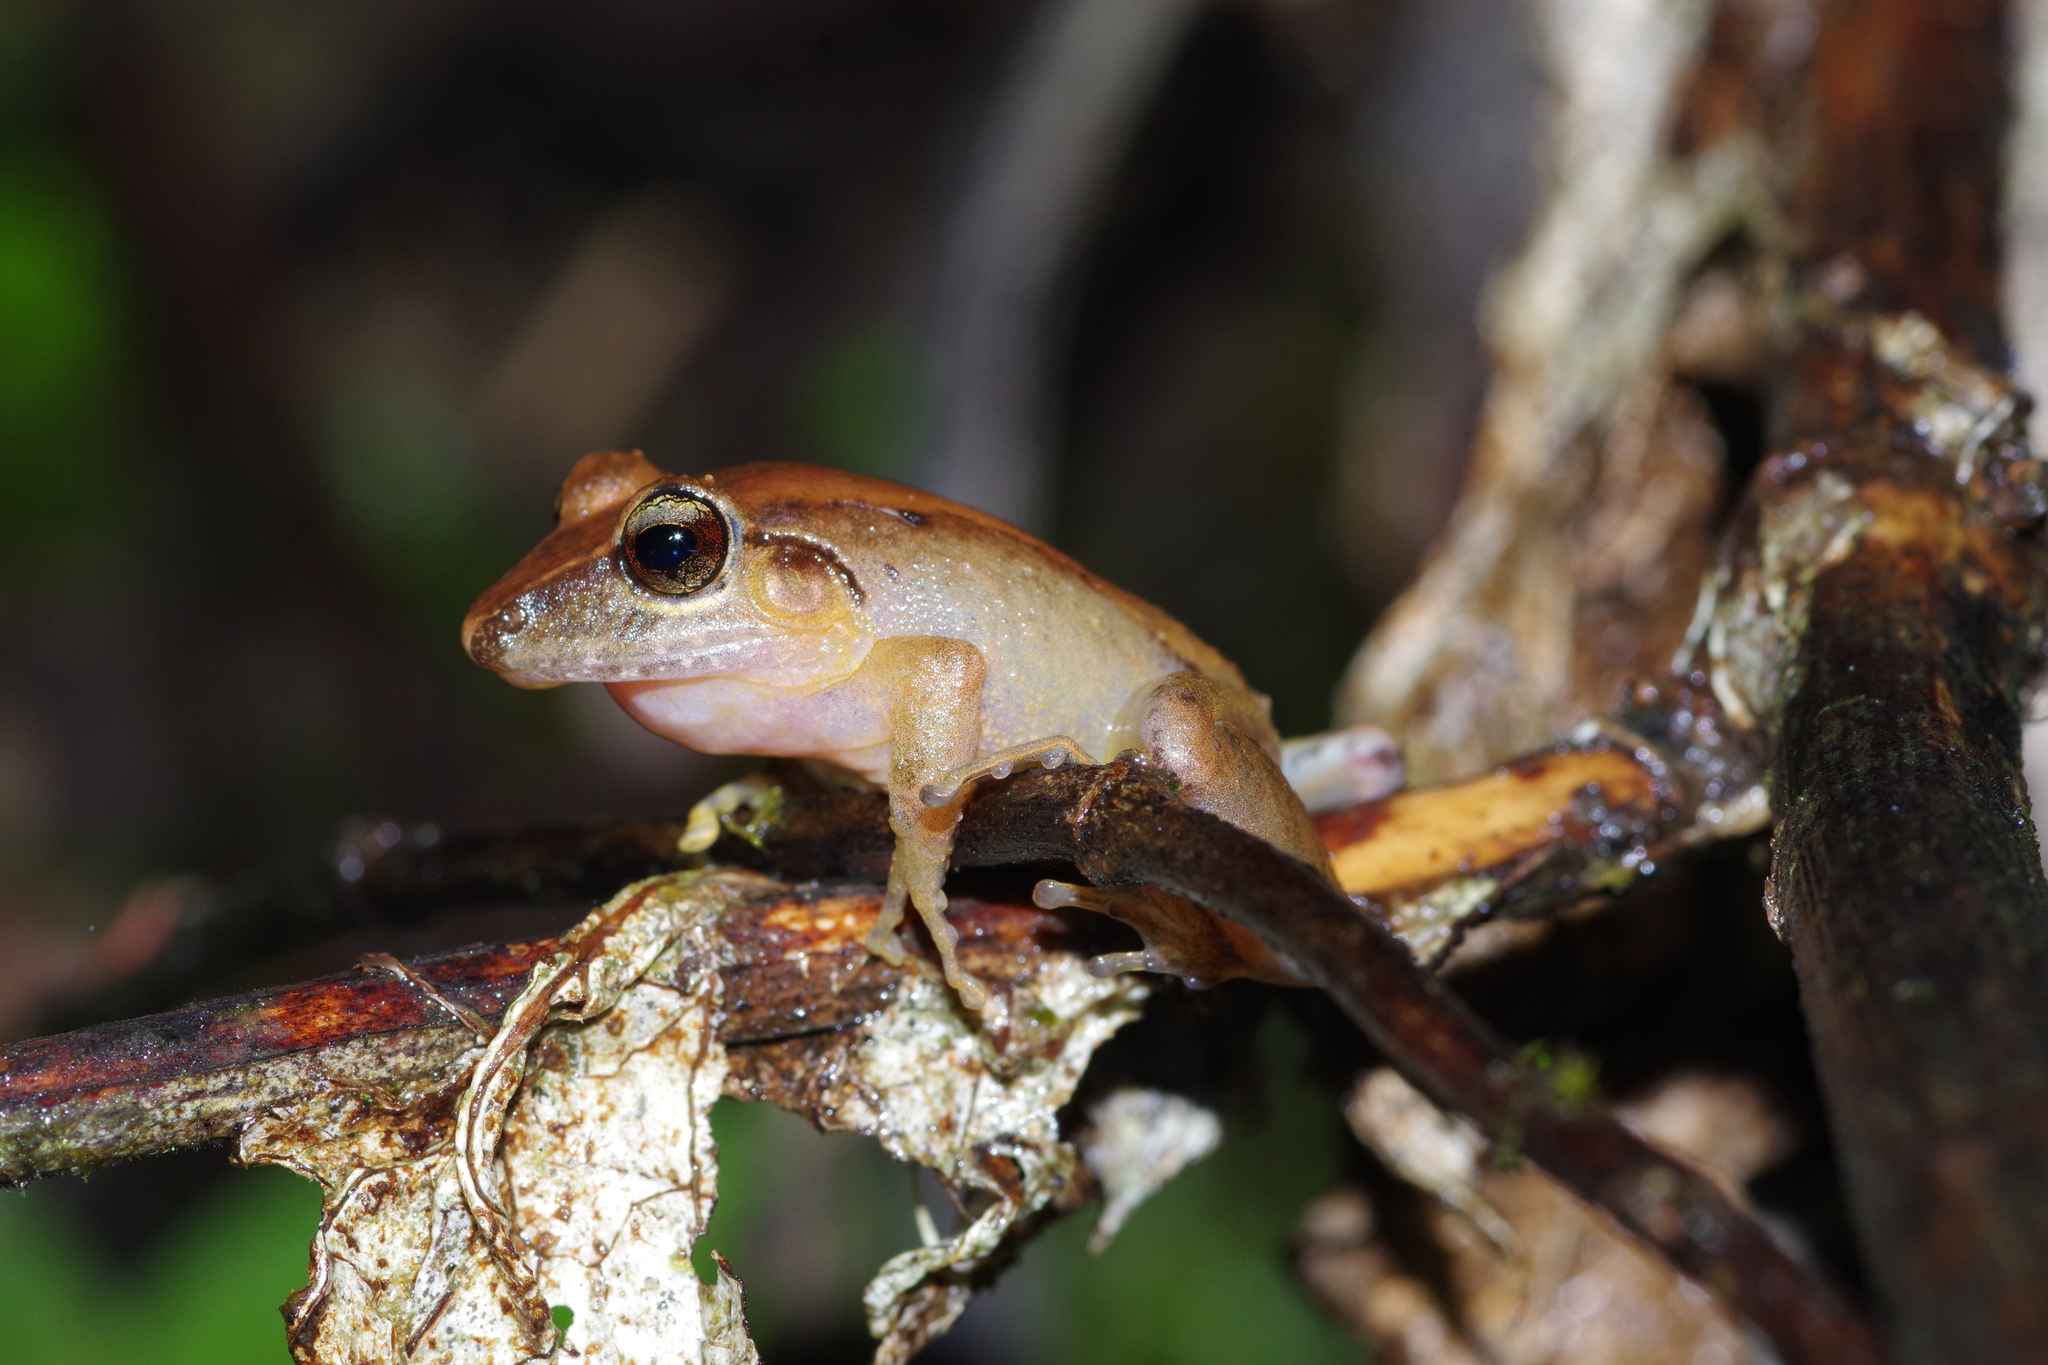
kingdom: Animalia
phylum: Chordata
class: Amphibia
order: Anura
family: Craugastoridae
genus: Craugastor
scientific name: Craugastor crassidigitus
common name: Isla bonita robber frog
